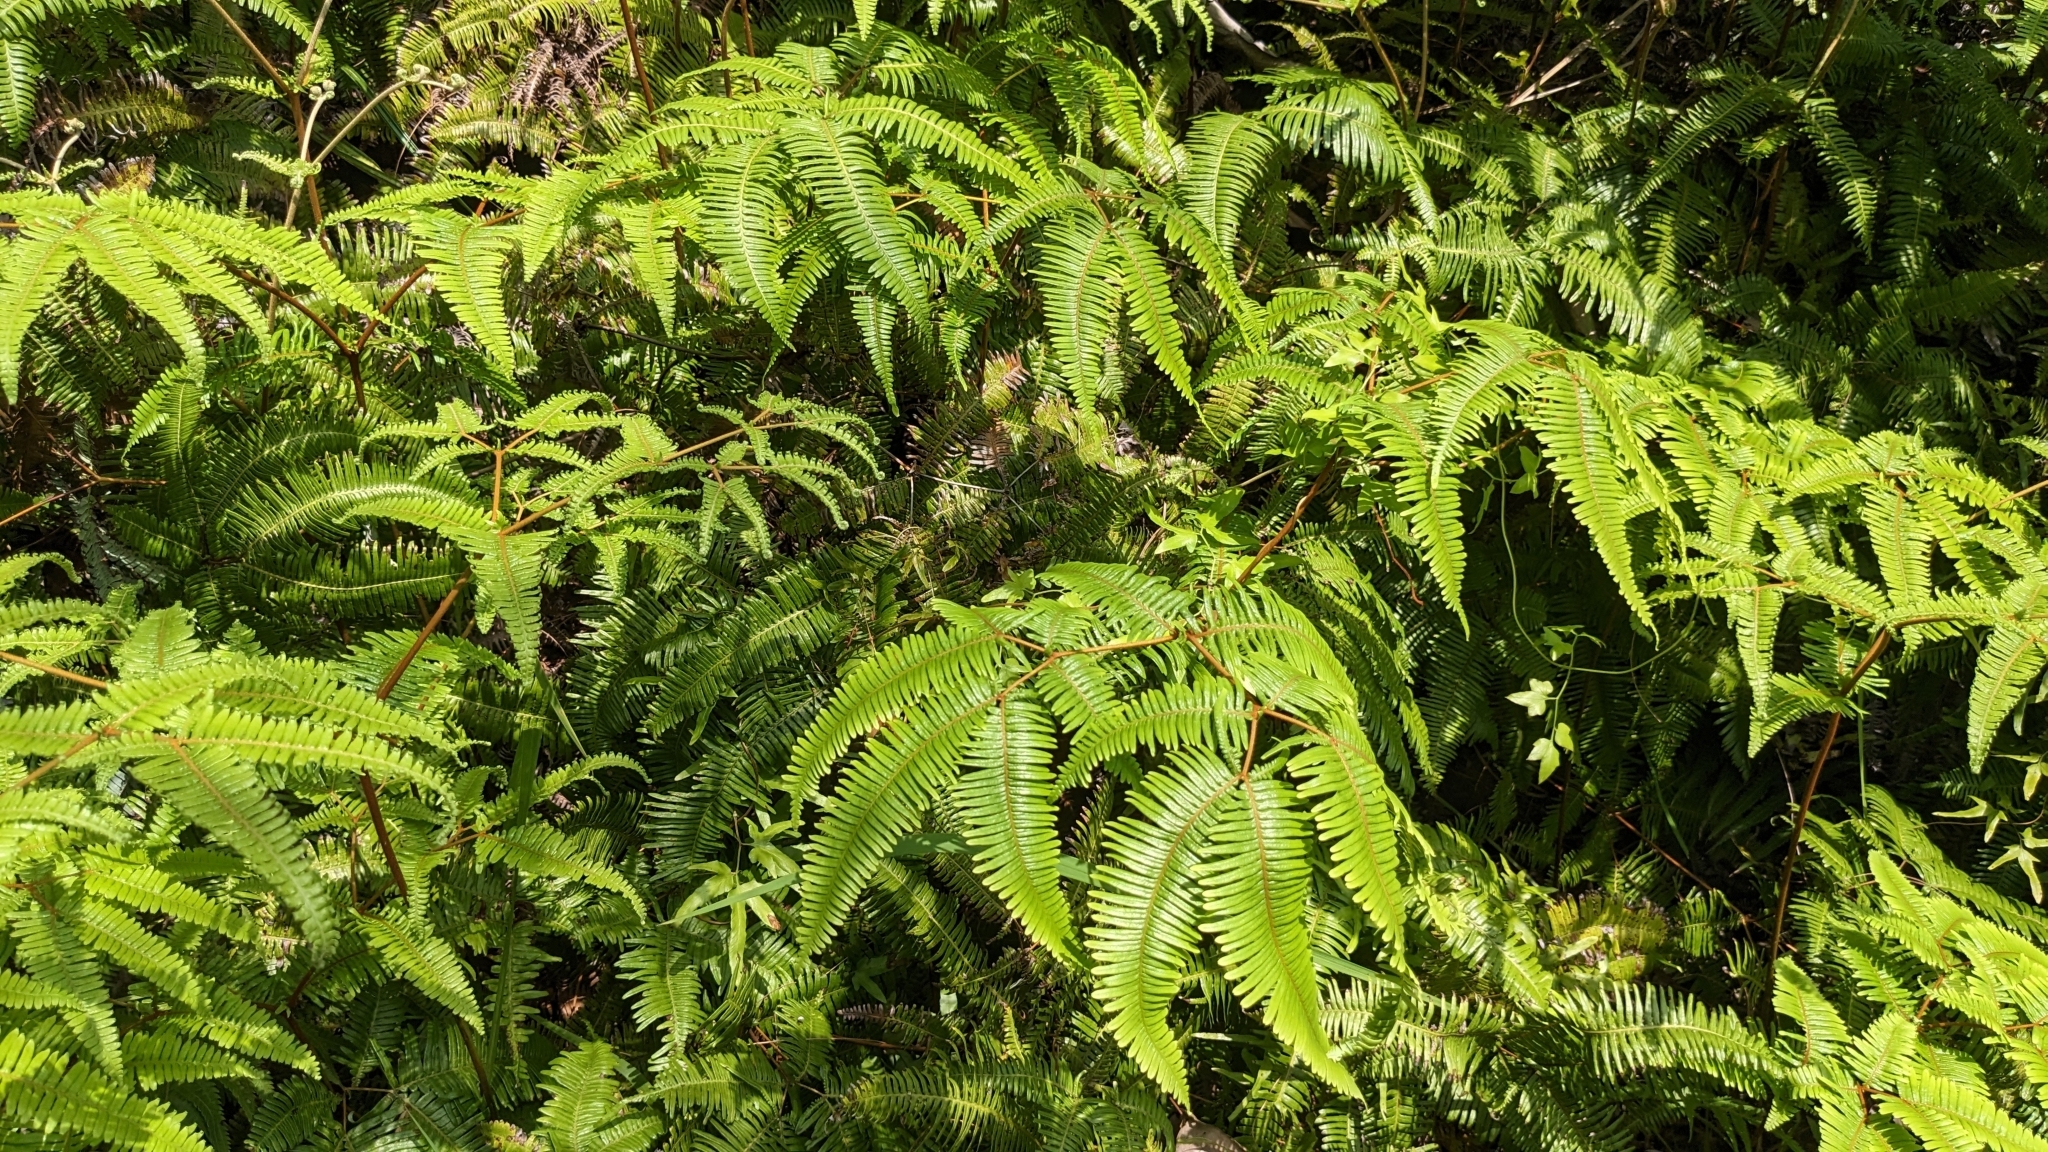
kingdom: Plantae
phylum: Tracheophyta
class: Polypodiopsida
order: Gleicheniales
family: Gleicheniaceae
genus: Dicranopteris
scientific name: Dicranopteris linearis
